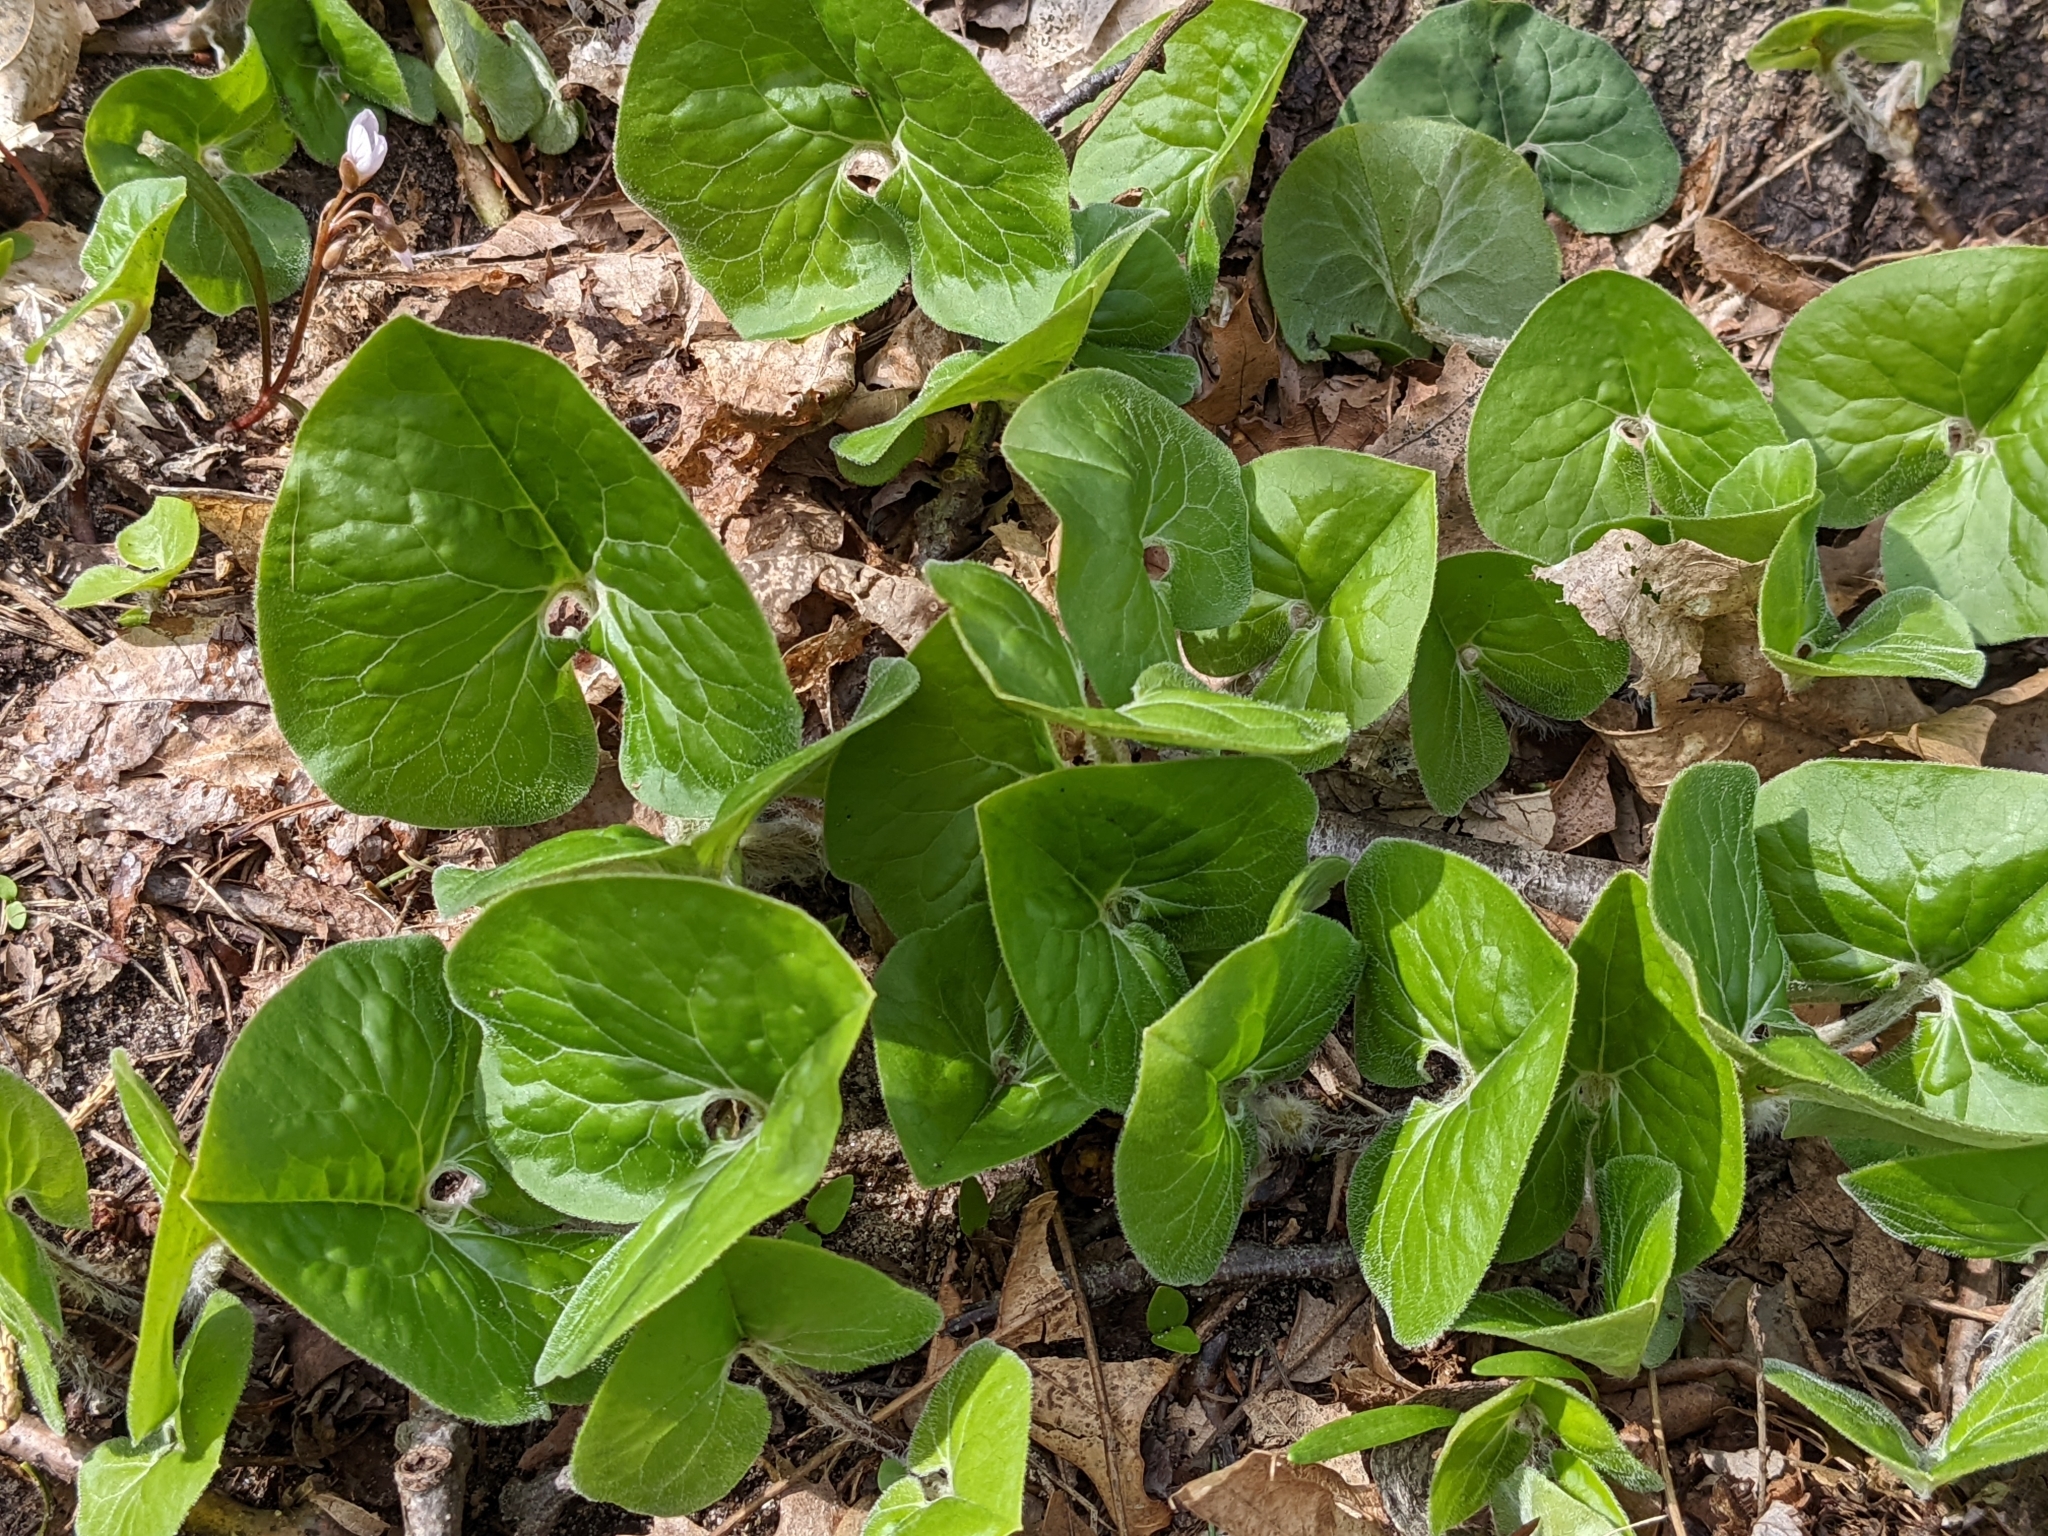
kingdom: Plantae
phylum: Tracheophyta
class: Magnoliopsida
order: Piperales
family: Aristolochiaceae
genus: Asarum
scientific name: Asarum canadense
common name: Wild ginger
